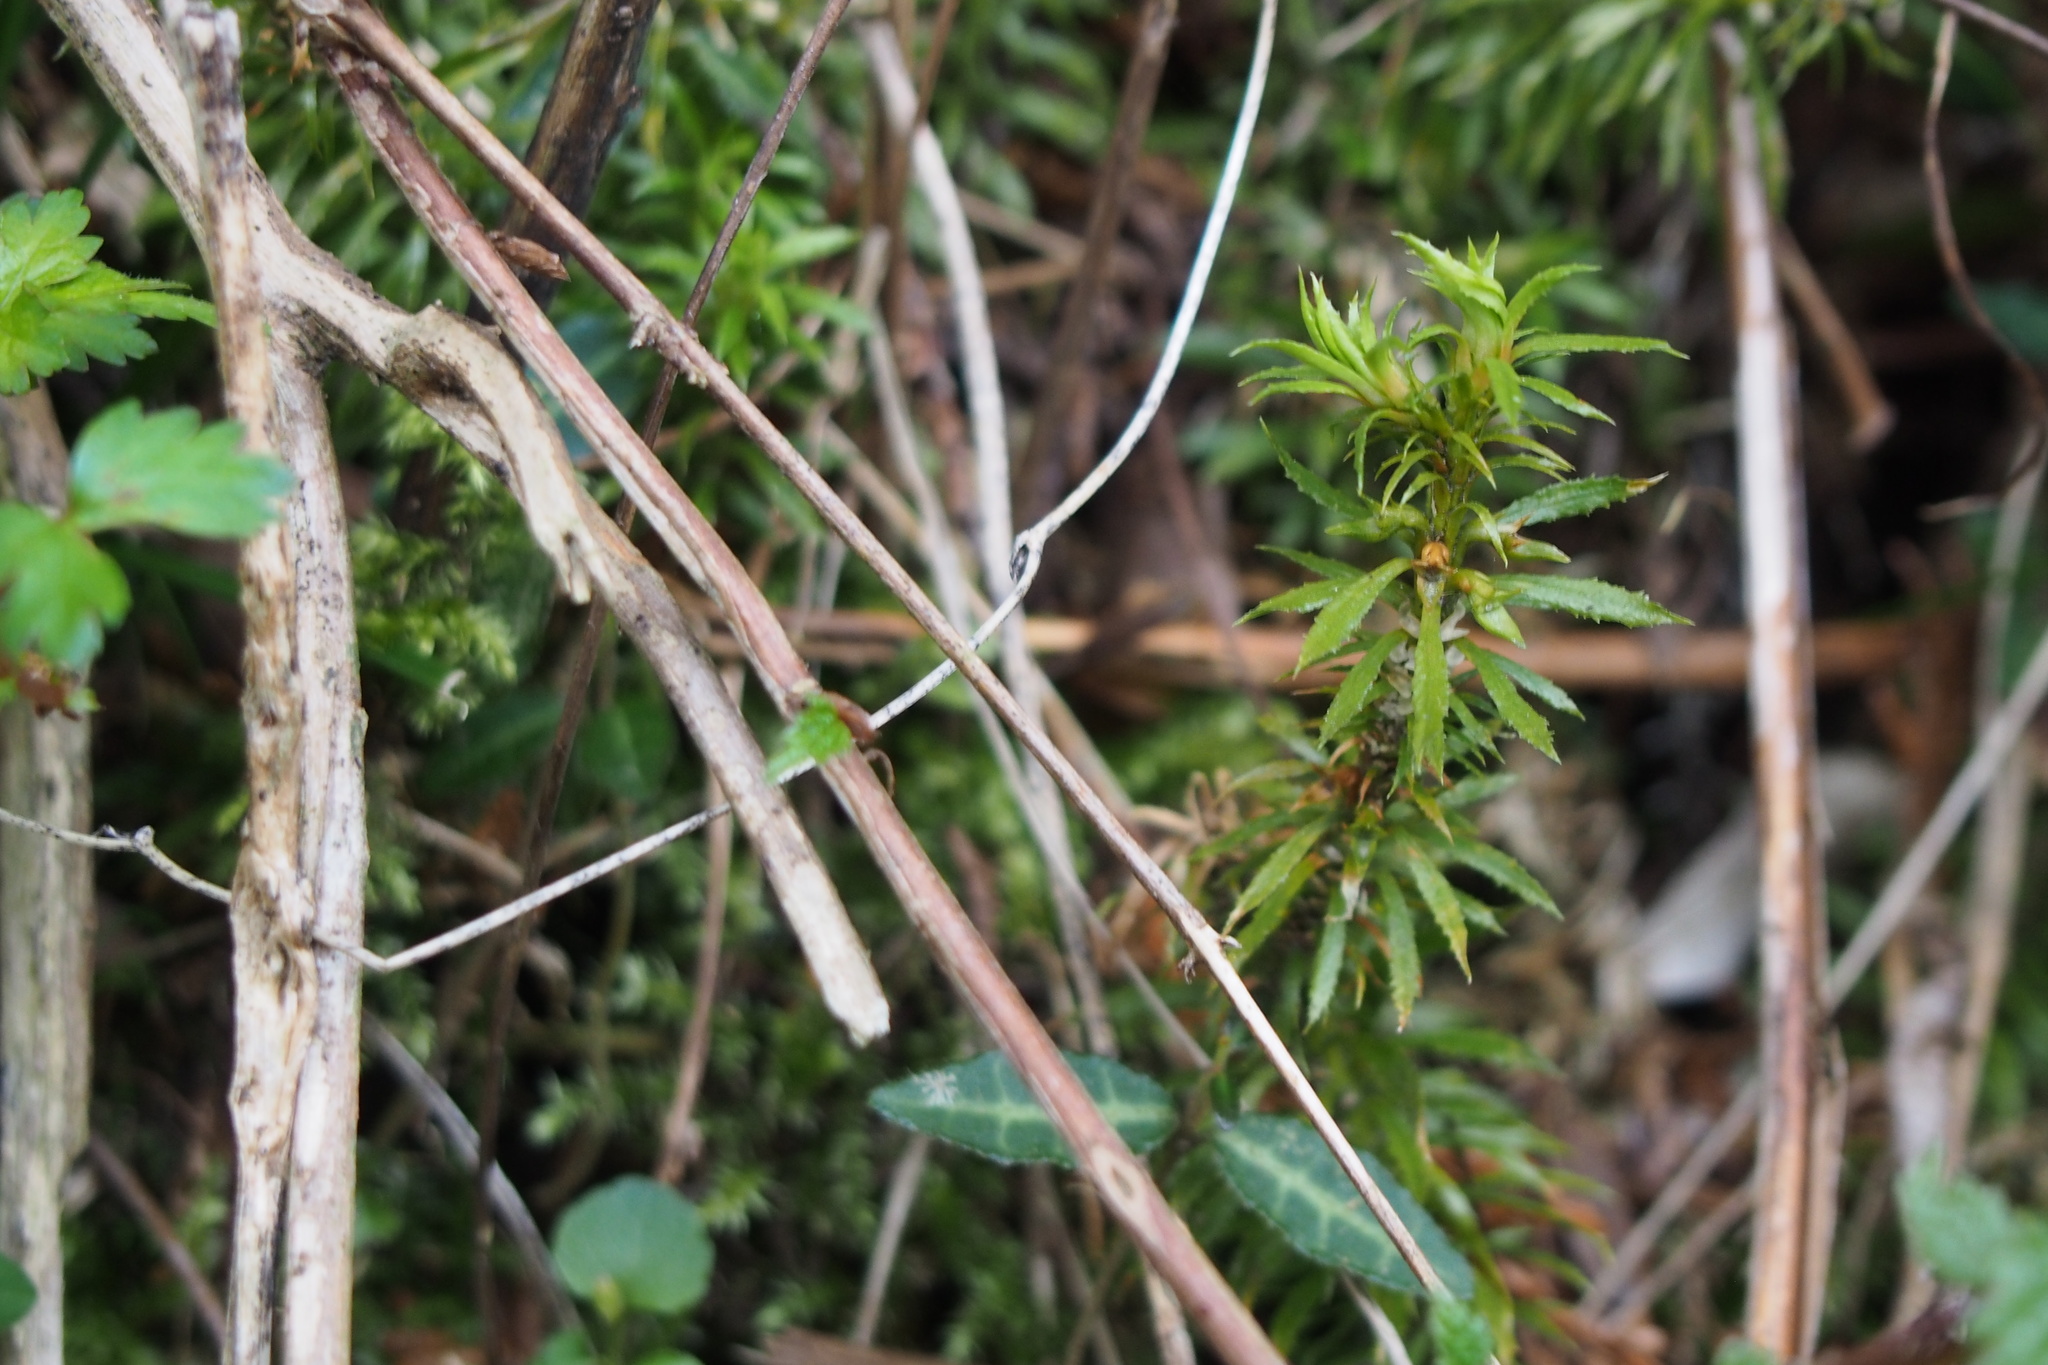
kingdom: Plantae
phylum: Tracheophyta
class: Lycopodiopsida
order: Lycopodiales
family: Lycopodiaceae
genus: Huperzia
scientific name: Huperzia serrata
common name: Toothed club-moss
